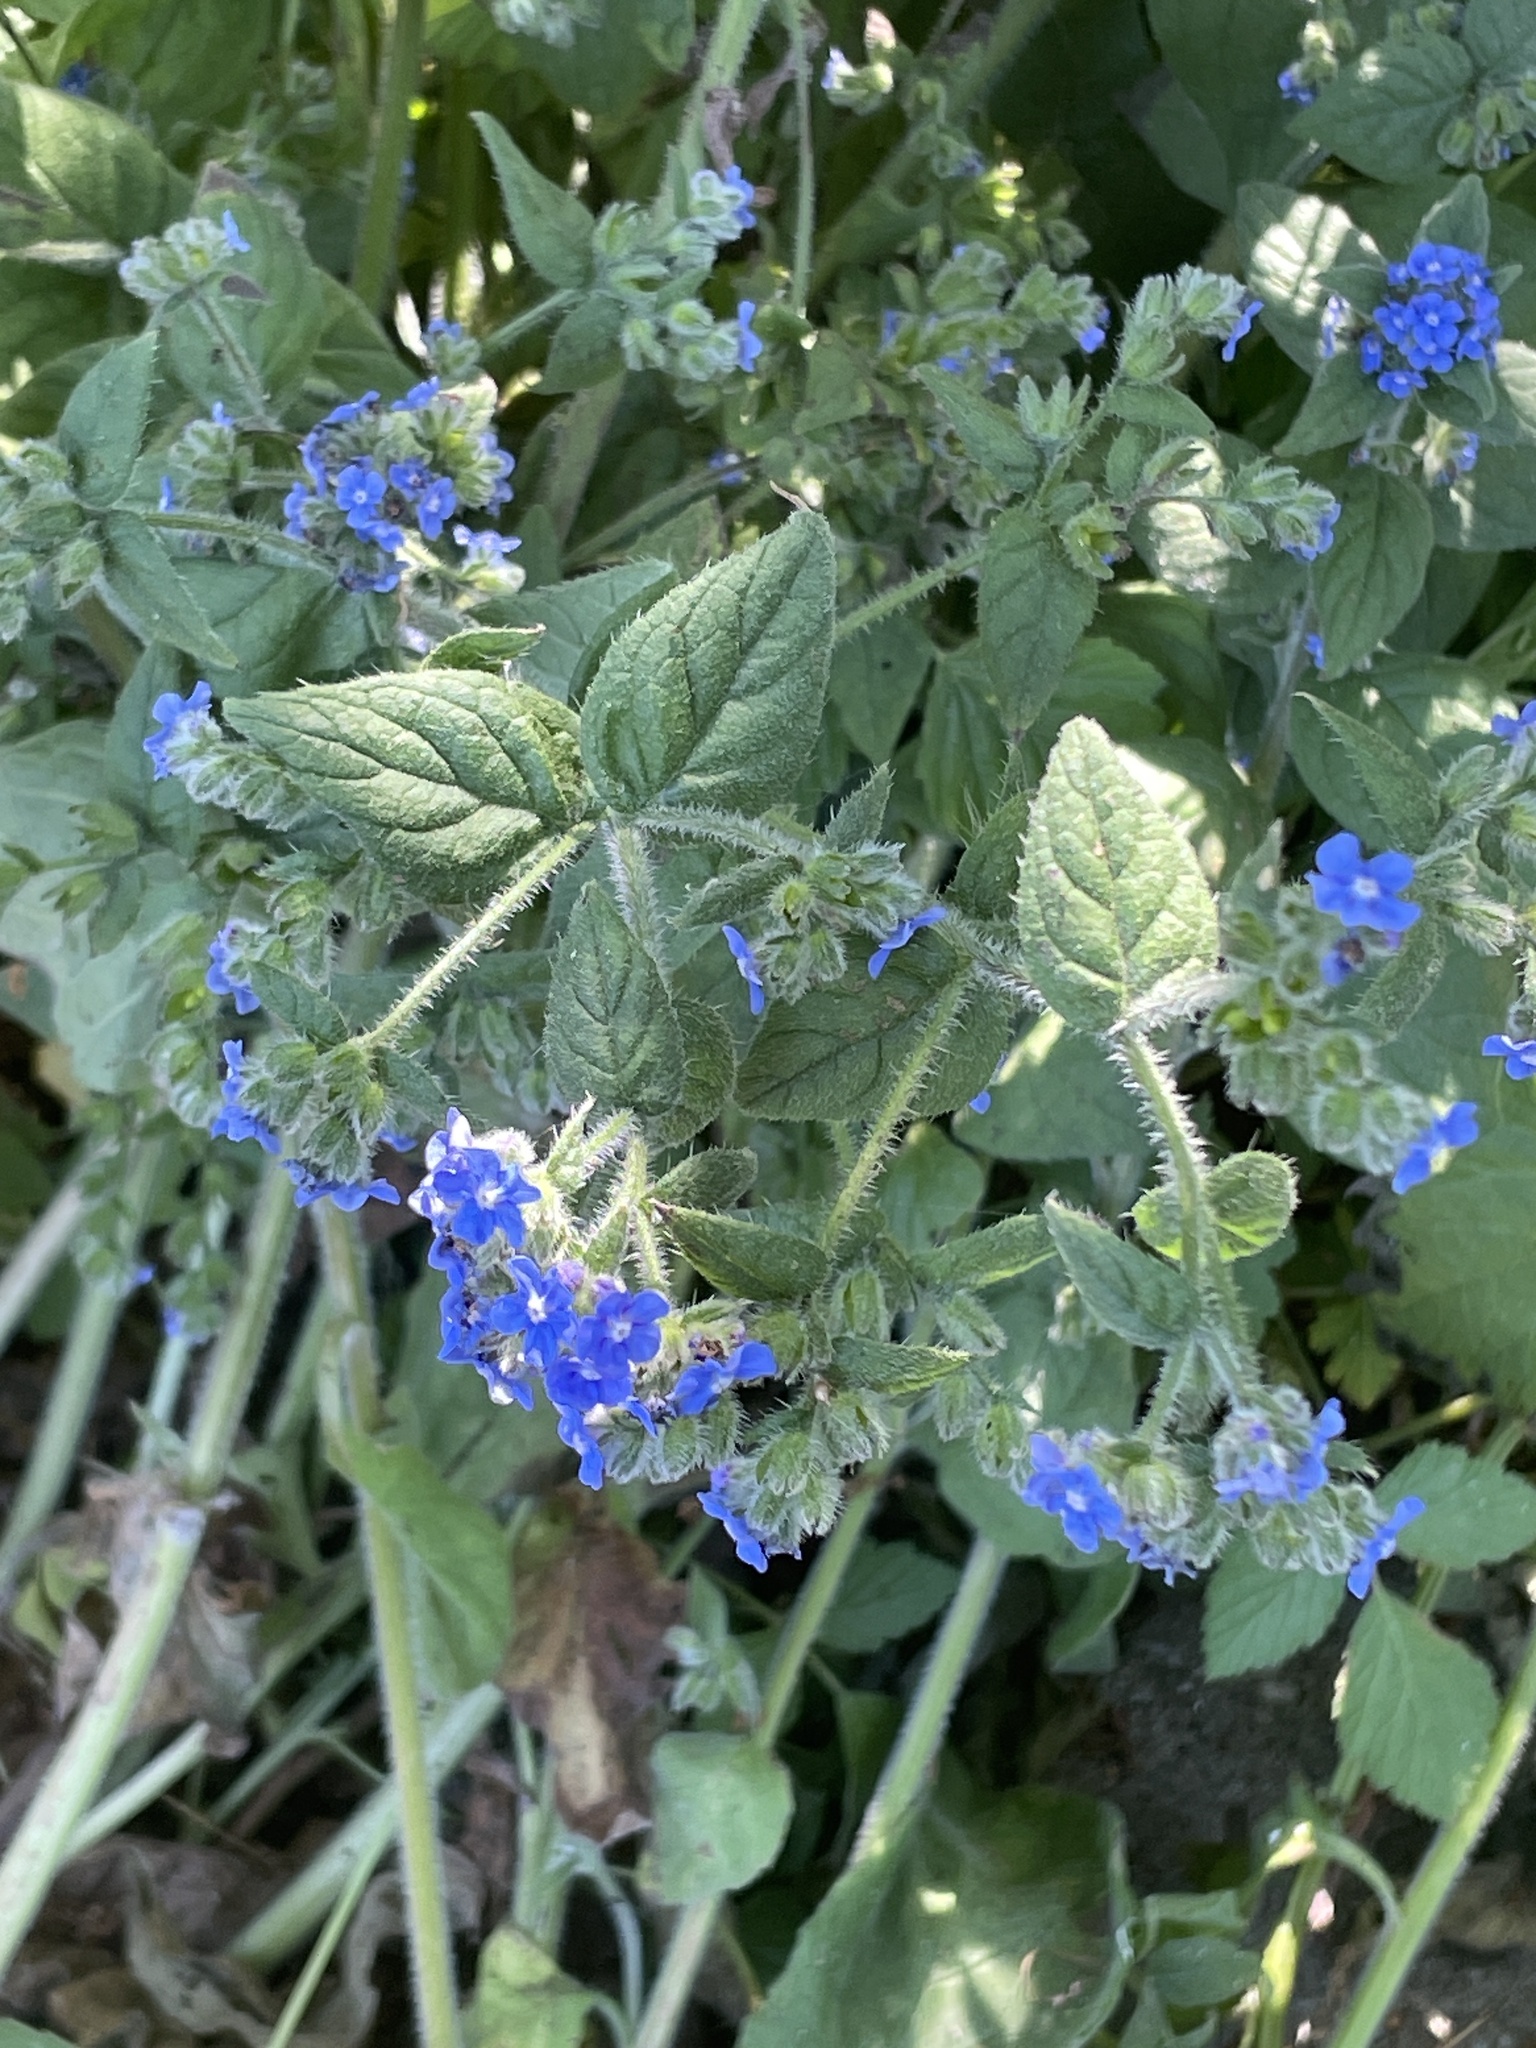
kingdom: Plantae
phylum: Tracheophyta
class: Magnoliopsida
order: Boraginales
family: Boraginaceae
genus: Pentaglottis
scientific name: Pentaglottis sempervirens
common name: Green alkanet
